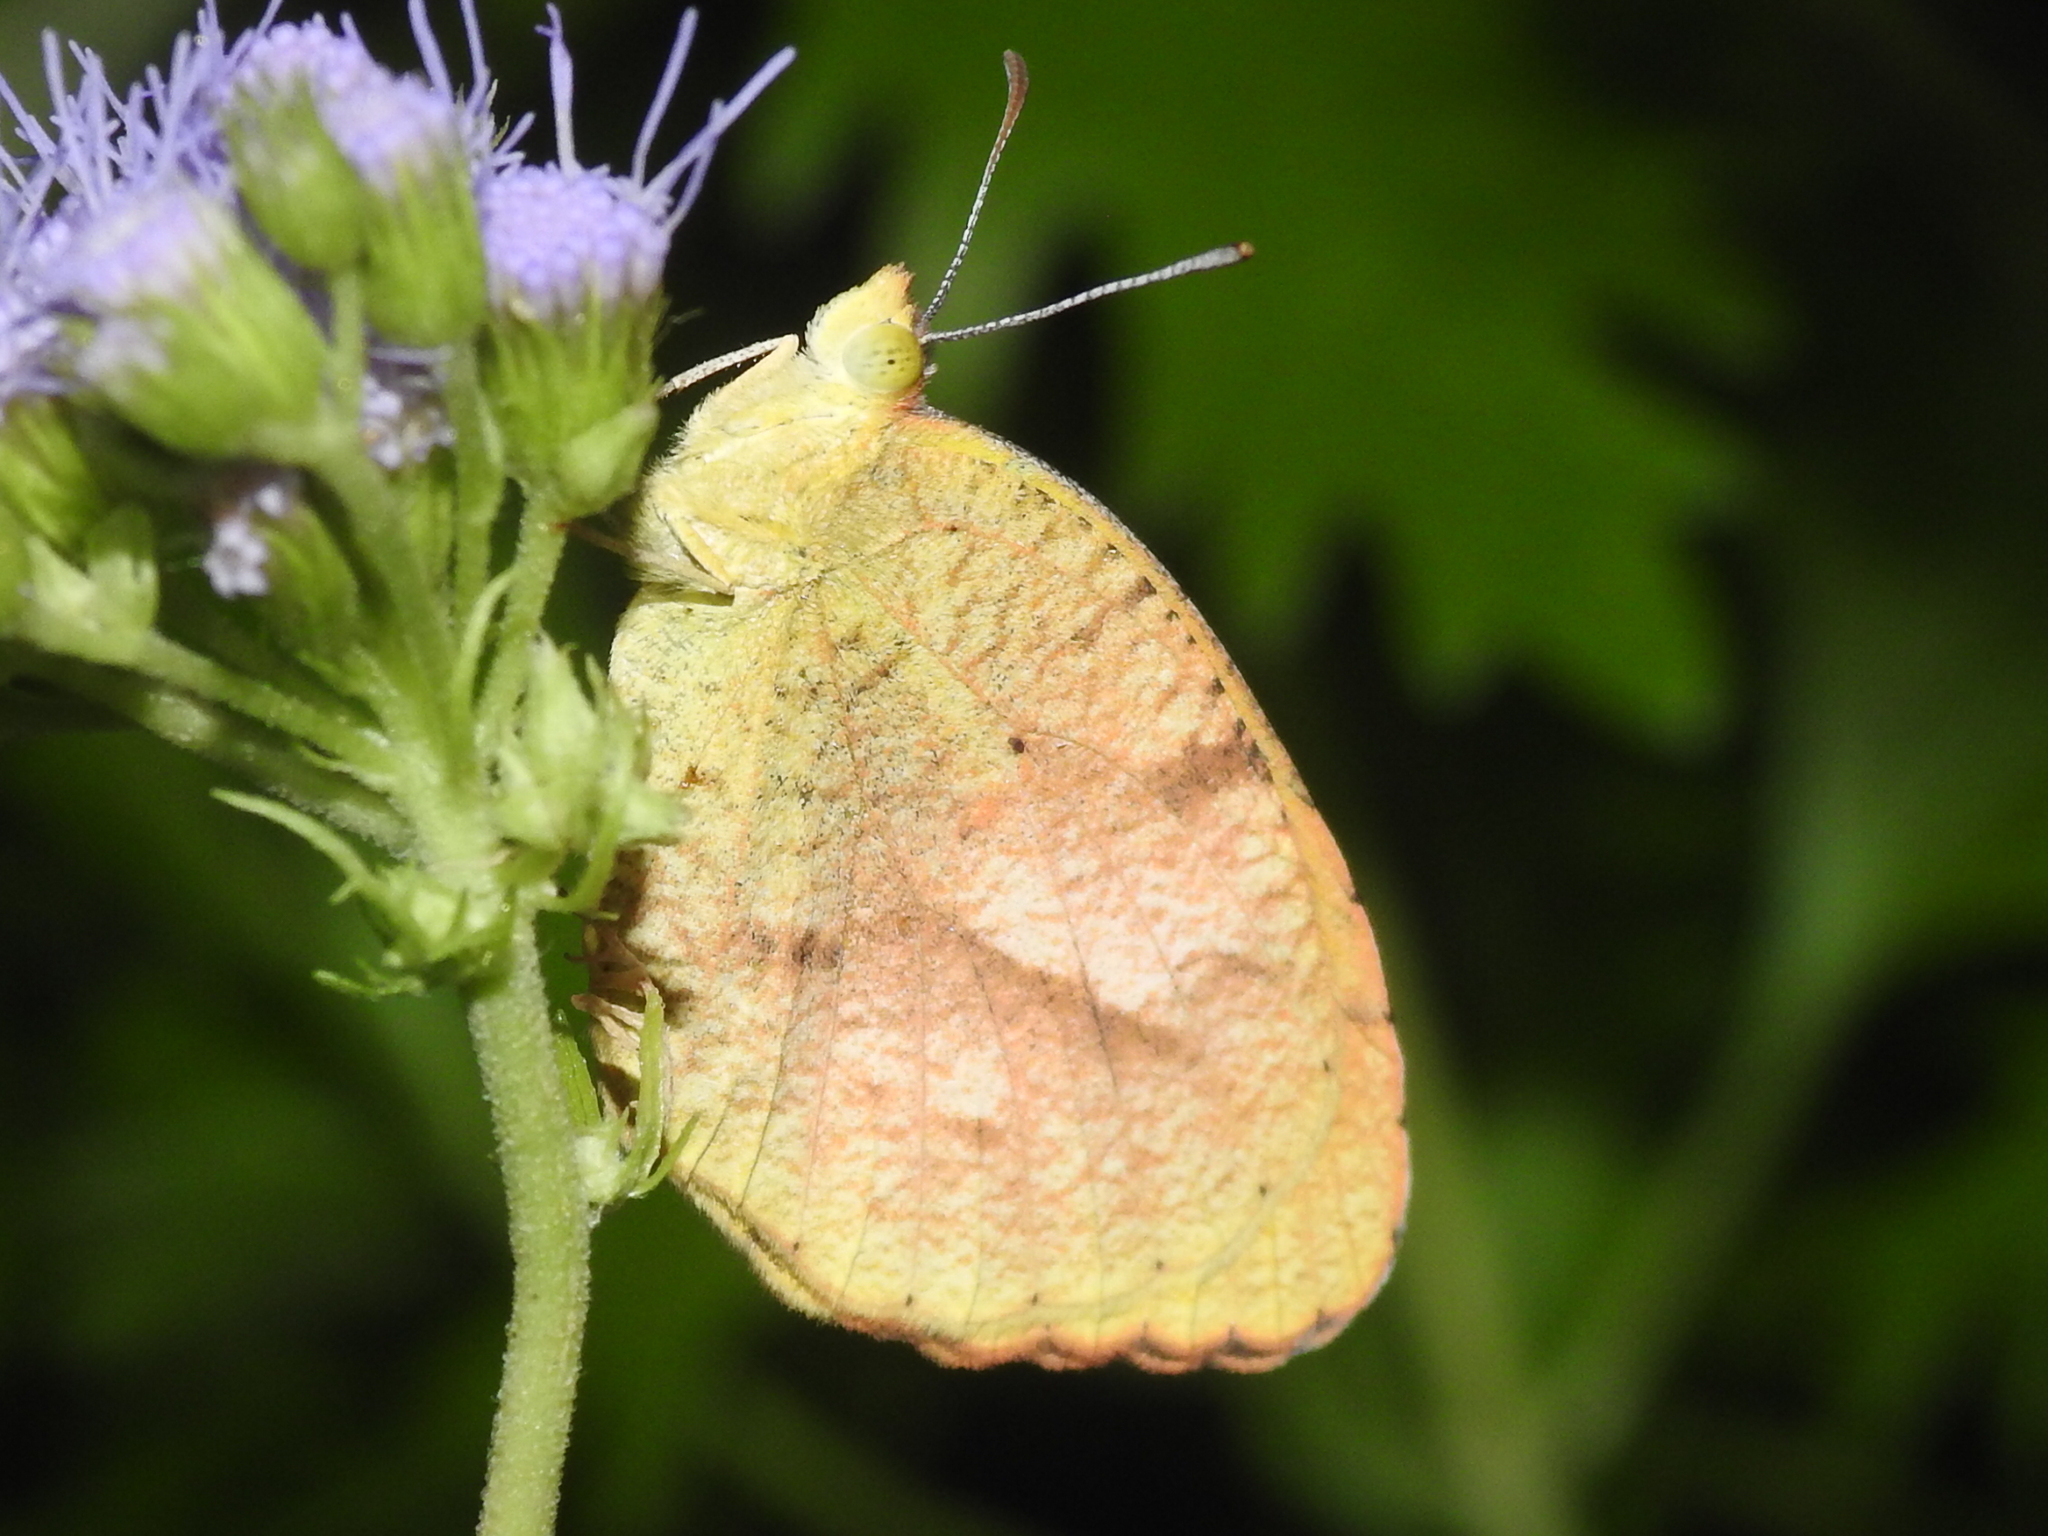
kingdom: Animalia
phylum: Arthropoda
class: Insecta
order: Lepidoptera
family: Pieridae
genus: Abaeis
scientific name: Abaeis nicippe
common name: Sleepy orange
